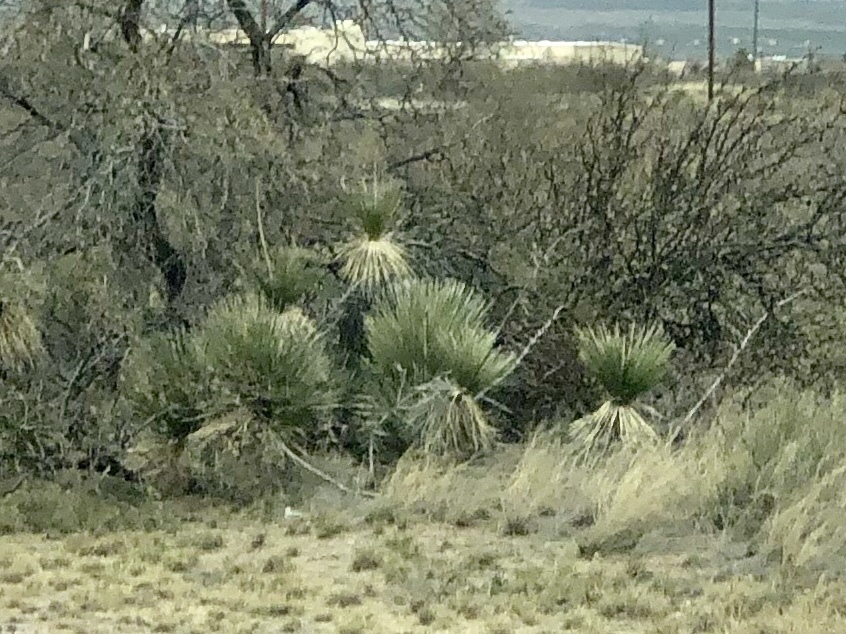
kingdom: Plantae
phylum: Tracheophyta
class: Liliopsida
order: Asparagales
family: Asparagaceae
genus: Yucca
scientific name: Yucca elata
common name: Palmella
